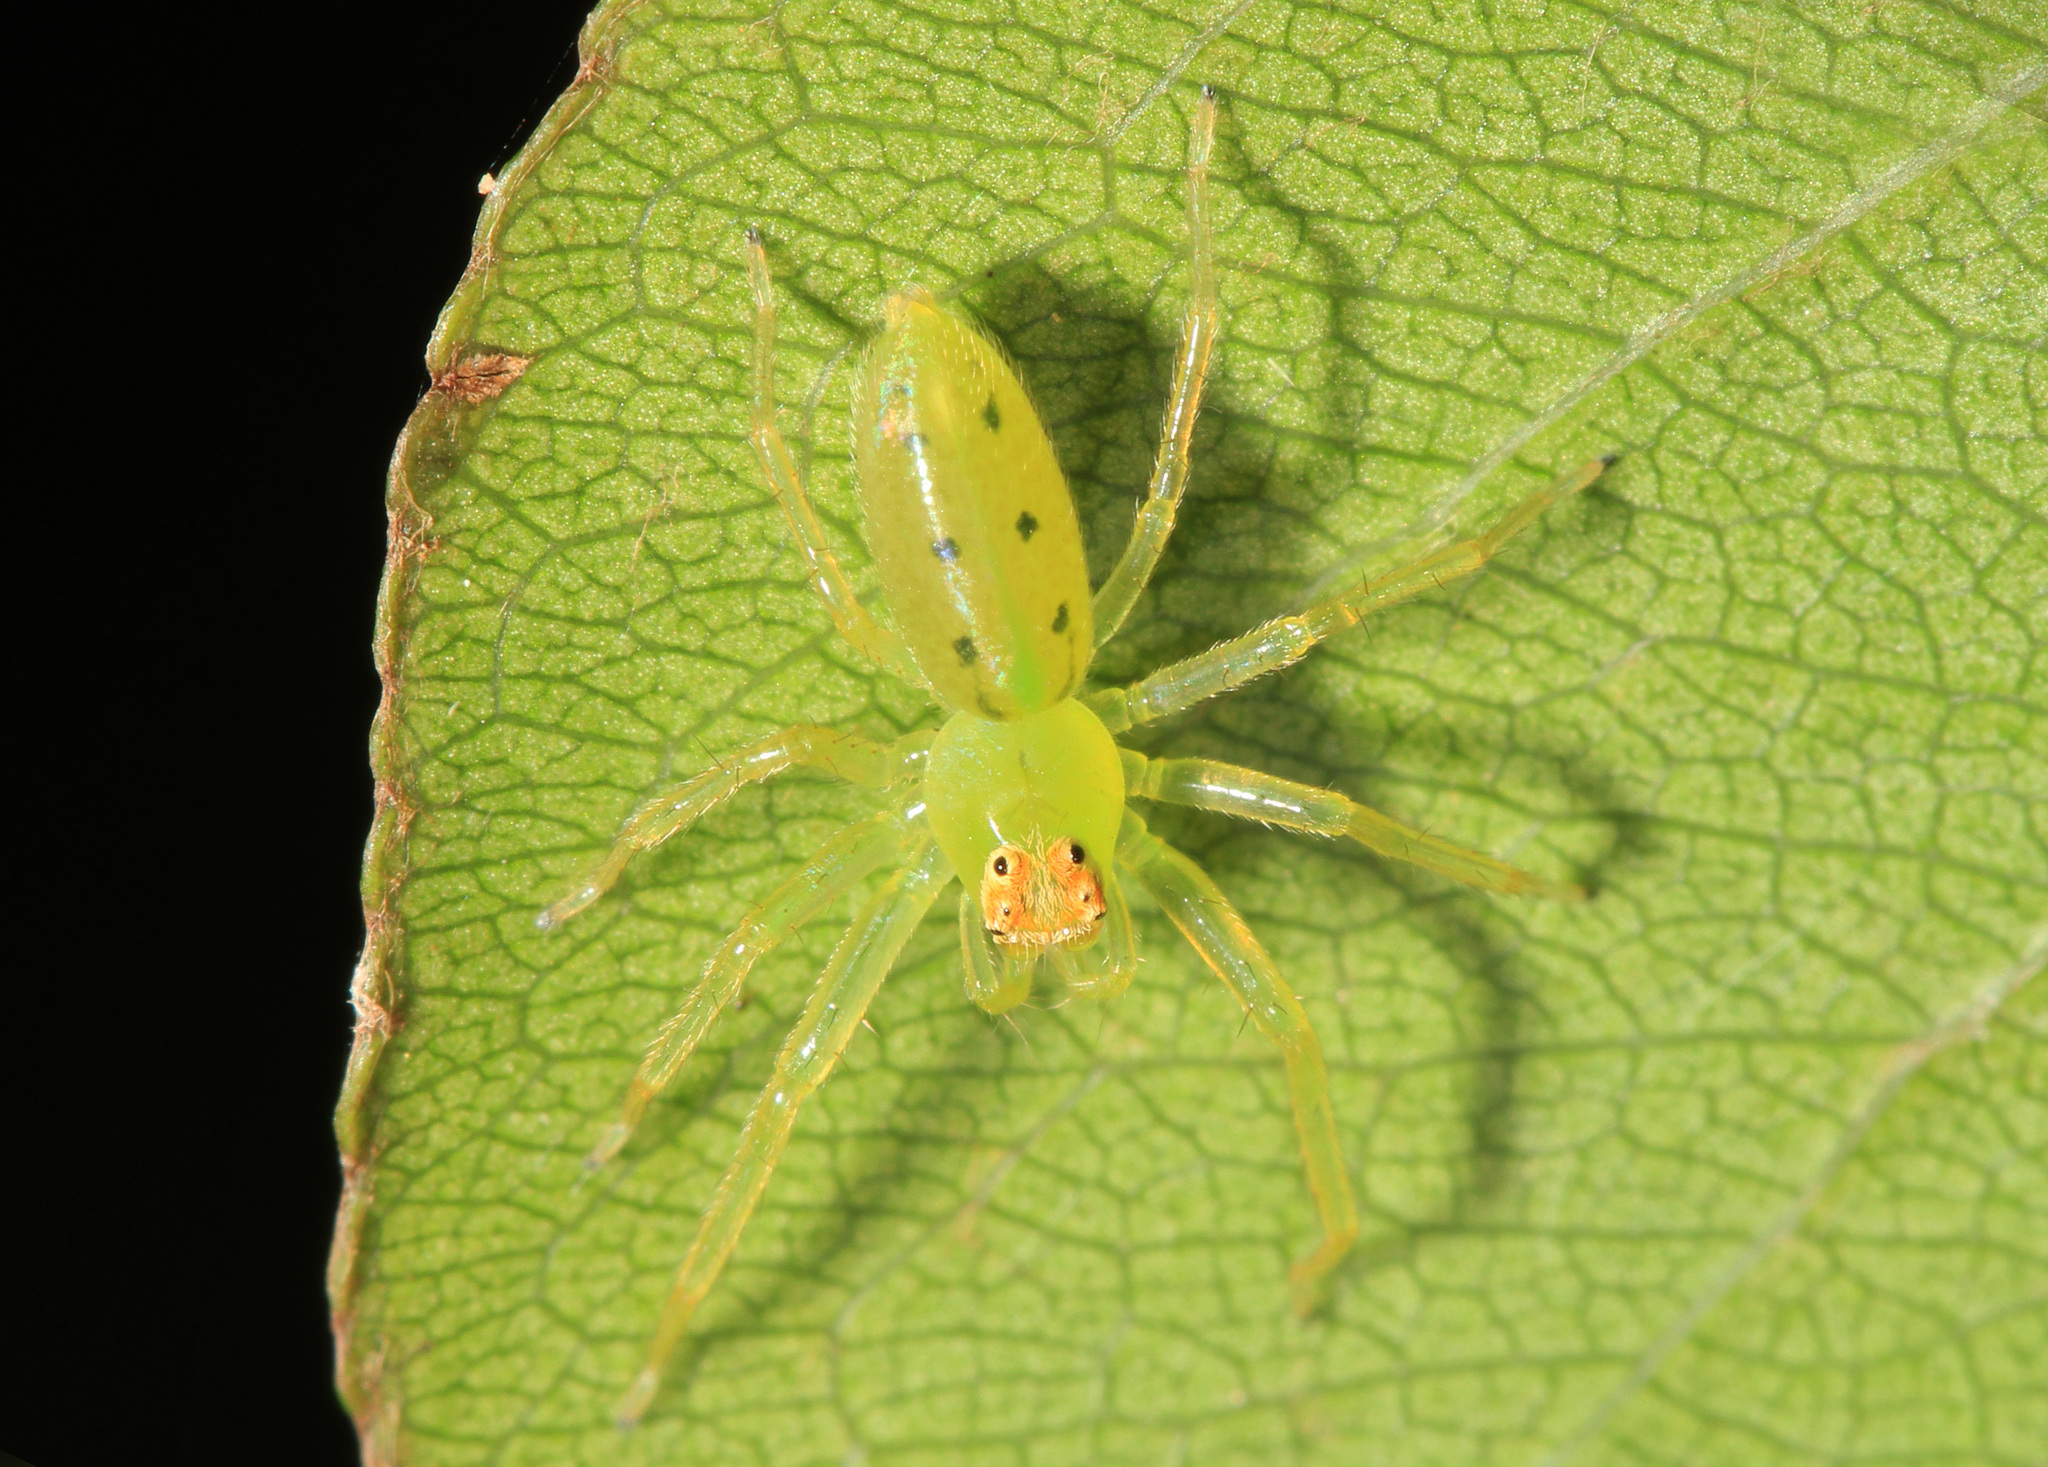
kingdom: Animalia
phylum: Arthropoda
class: Arachnida
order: Araneae
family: Salticidae
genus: Lyssomanes
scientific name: Lyssomanes viridis
